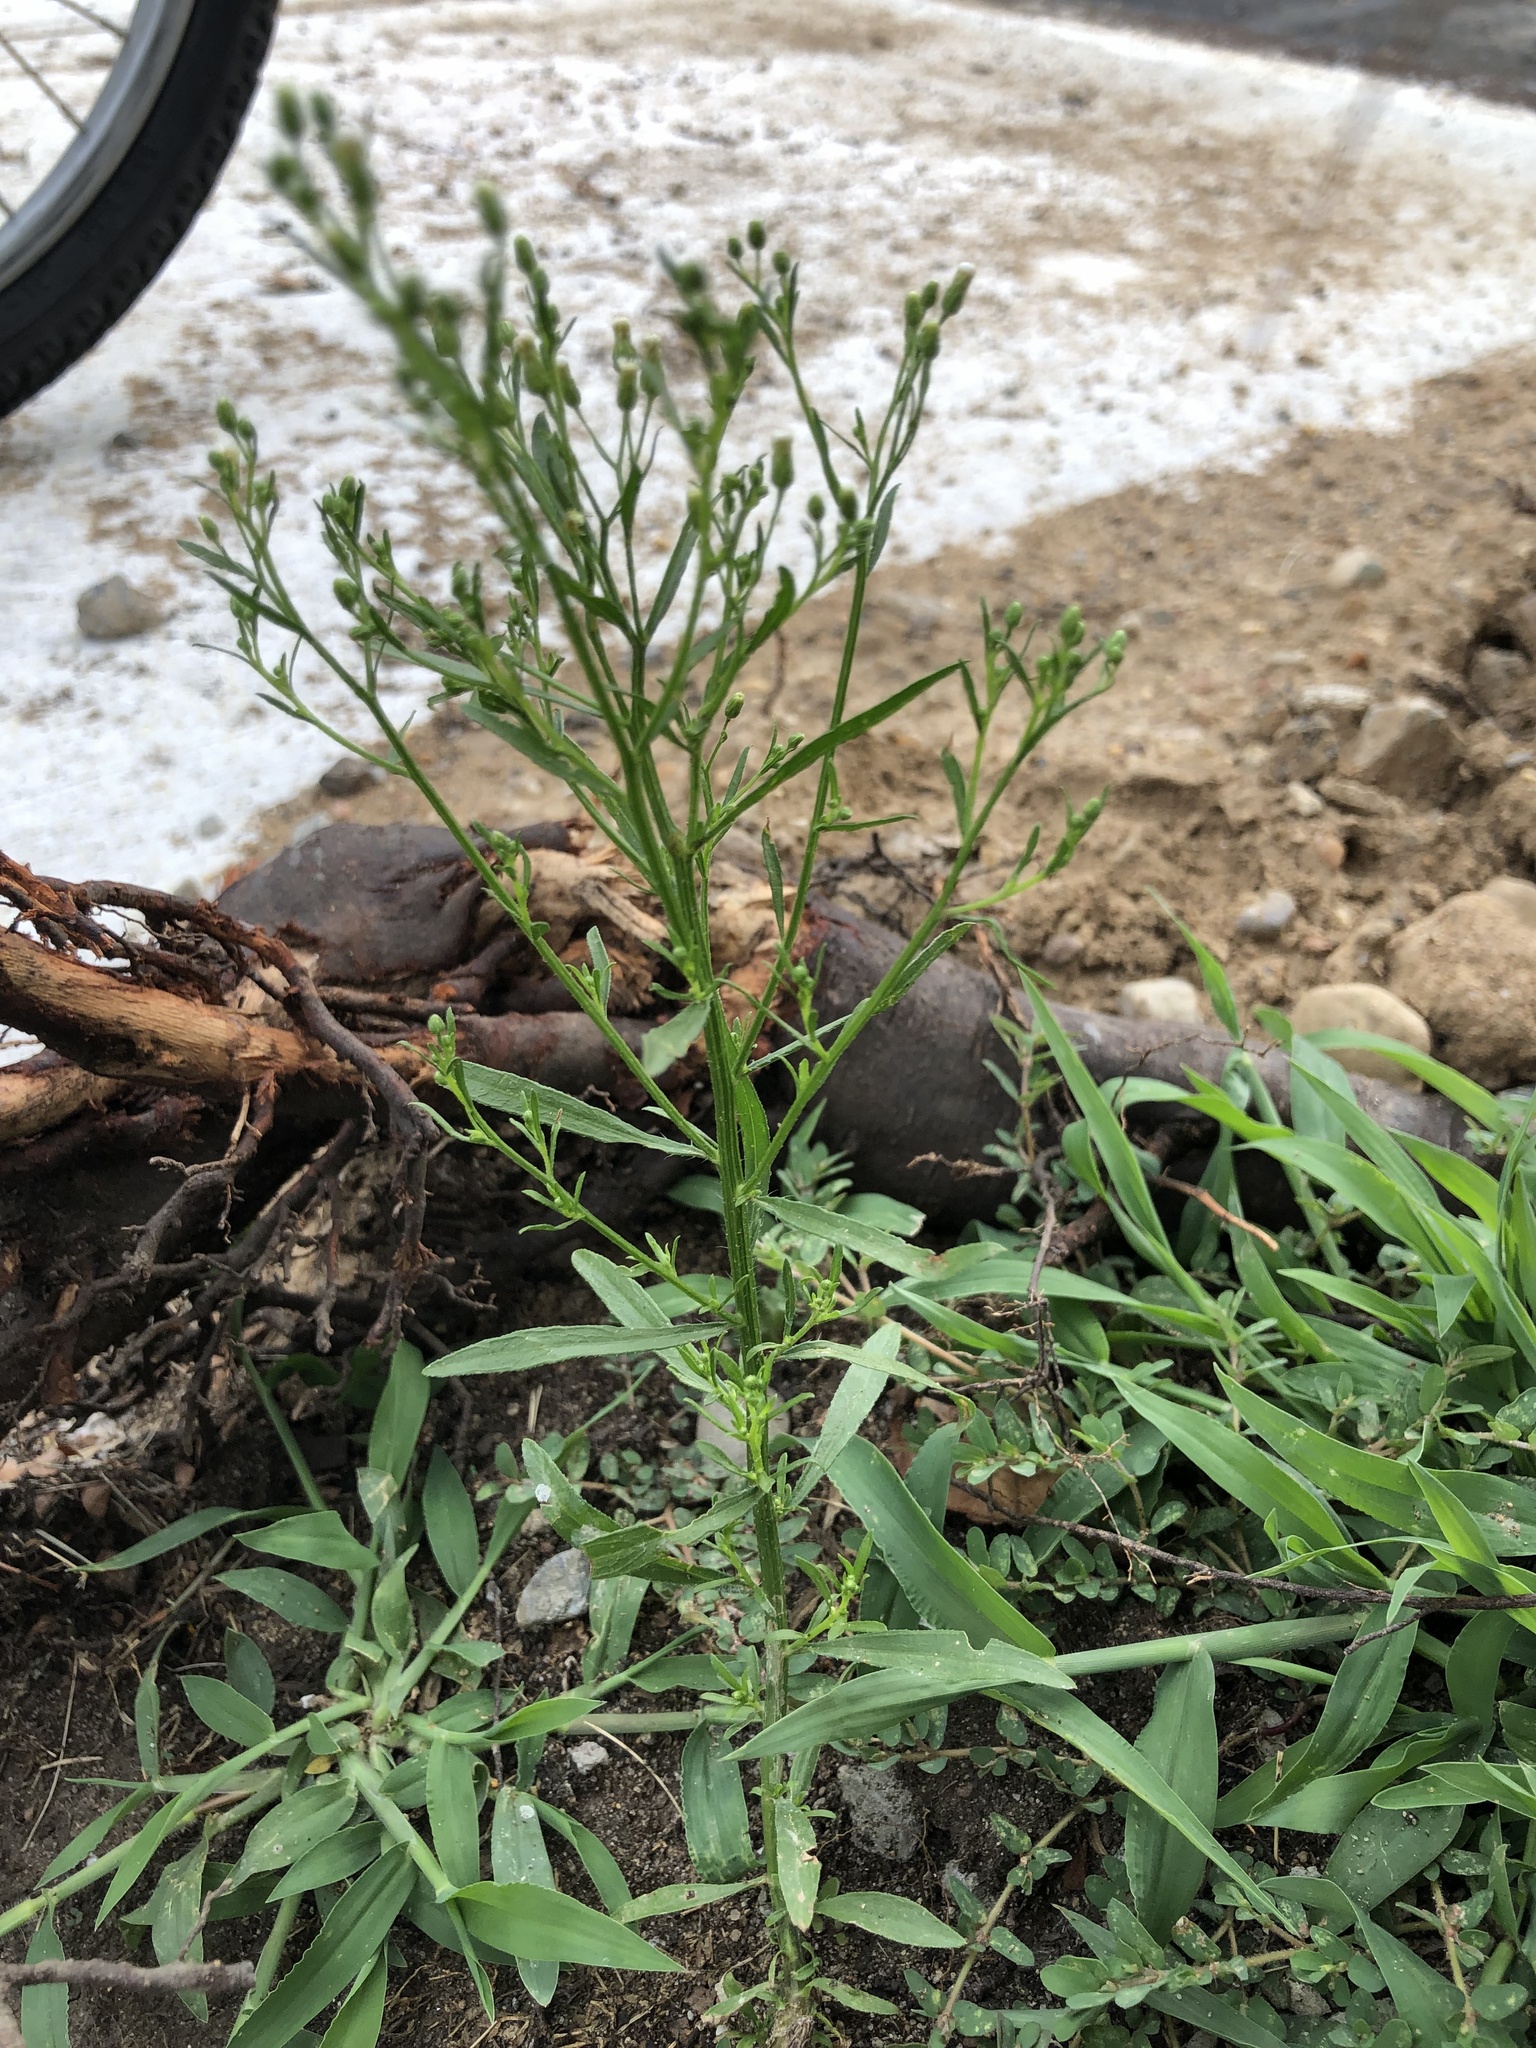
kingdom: Plantae
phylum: Tracheophyta
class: Magnoliopsida
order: Asterales
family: Asteraceae
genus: Erigeron
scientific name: Erigeron canadensis
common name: Canadian fleabane
